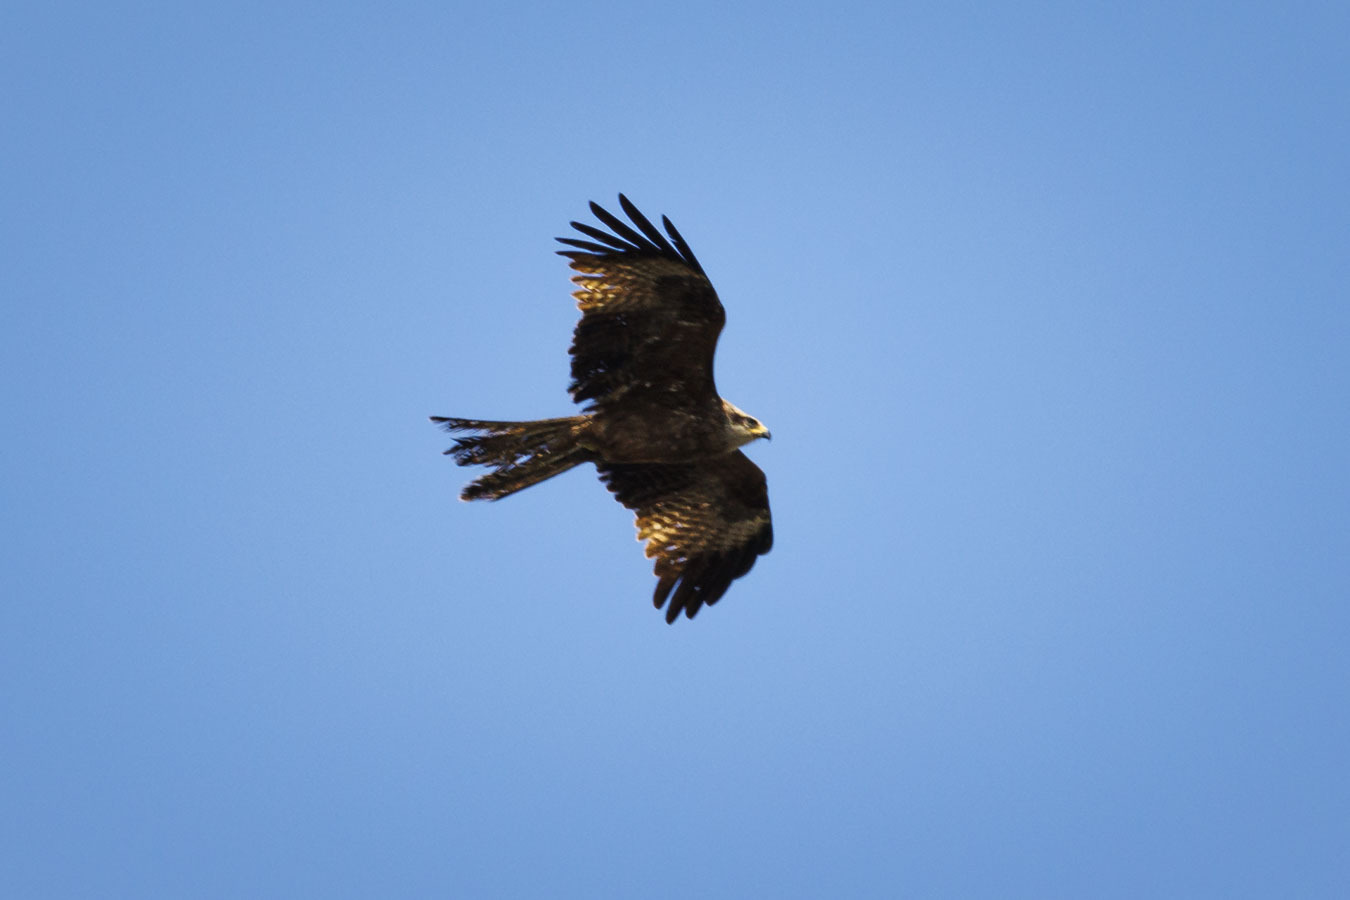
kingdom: Animalia
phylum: Chordata
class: Aves
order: Accipitriformes
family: Accipitridae
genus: Milvus
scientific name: Milvus migrans
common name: Black kite
